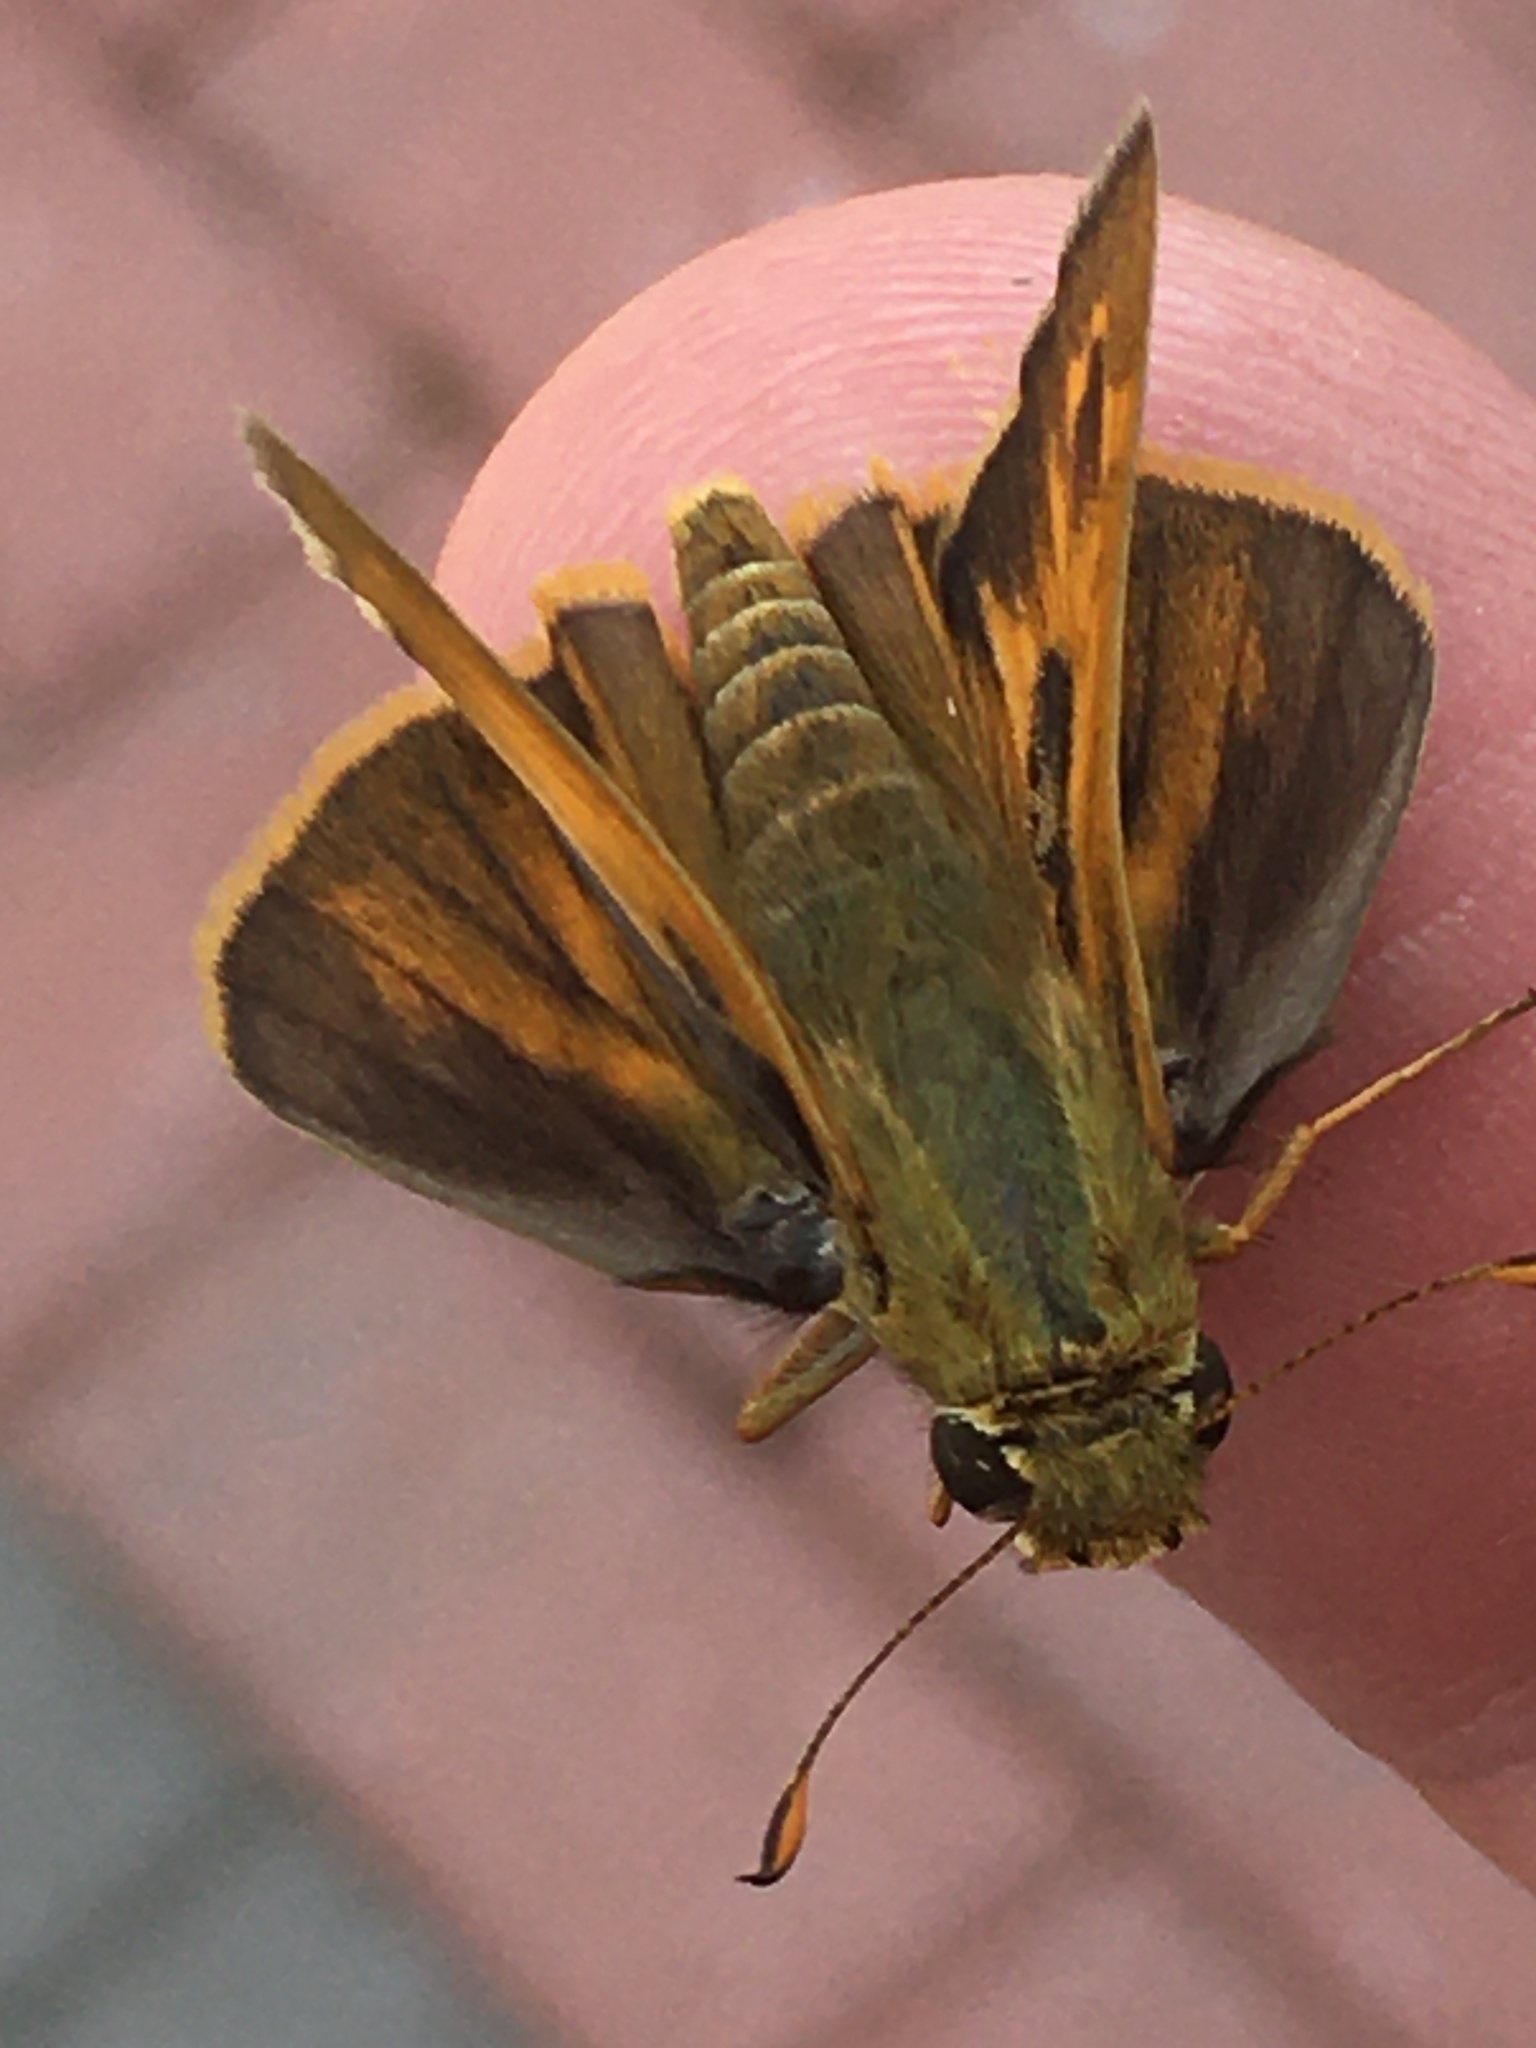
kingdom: Animalia
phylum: Arthropoda
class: Insecta
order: Lepidoptera
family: Hesperiidae
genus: Atalopedes
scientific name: Atalopedes
